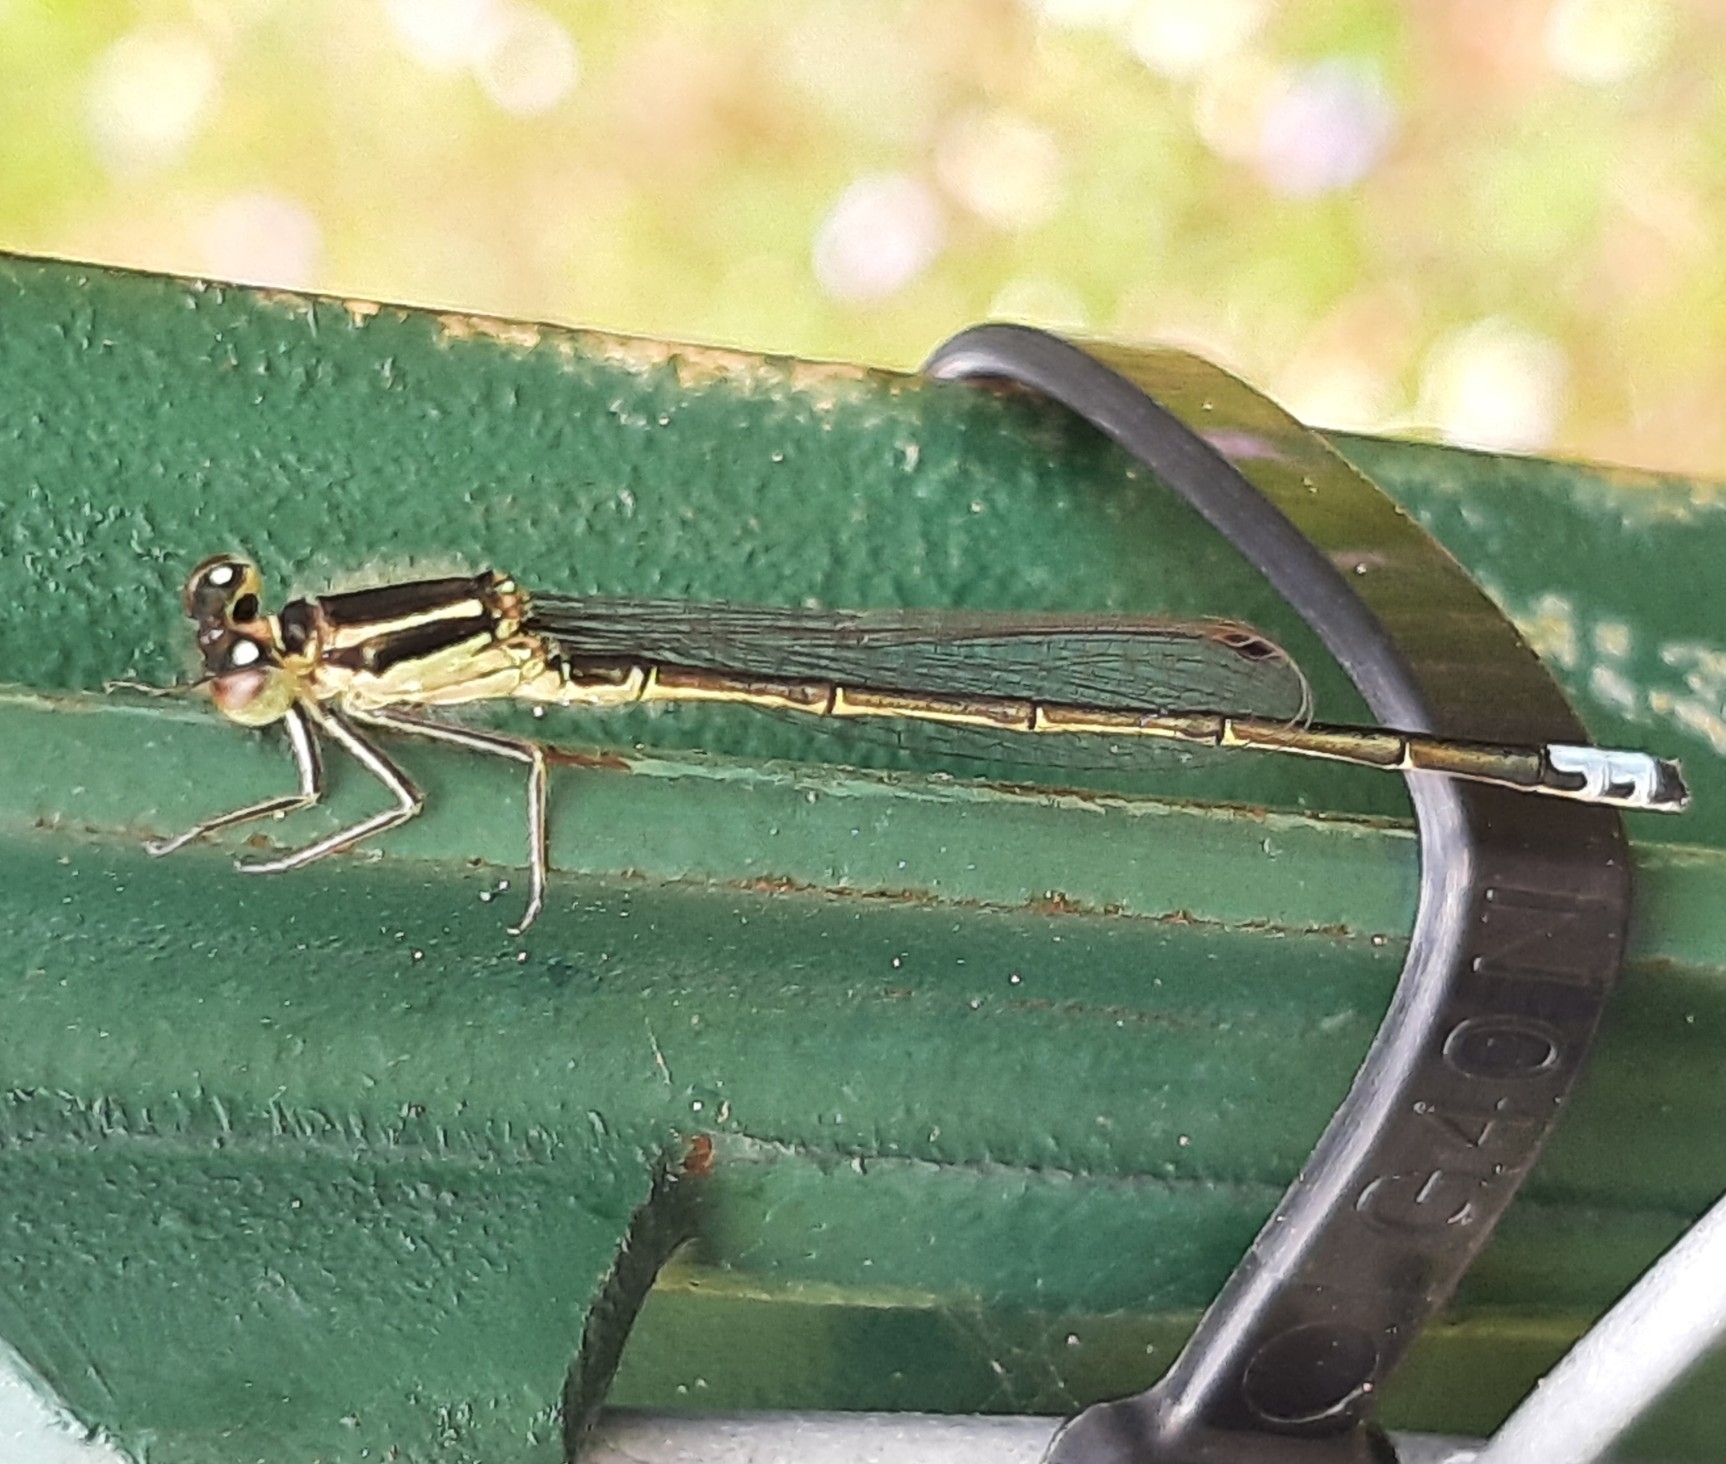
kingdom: Animalia
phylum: Arthropoda
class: Insecta
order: Odonata
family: Coenagrionidae
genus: Ischnura
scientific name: Ischnura verticalis
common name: Eastern forktail
